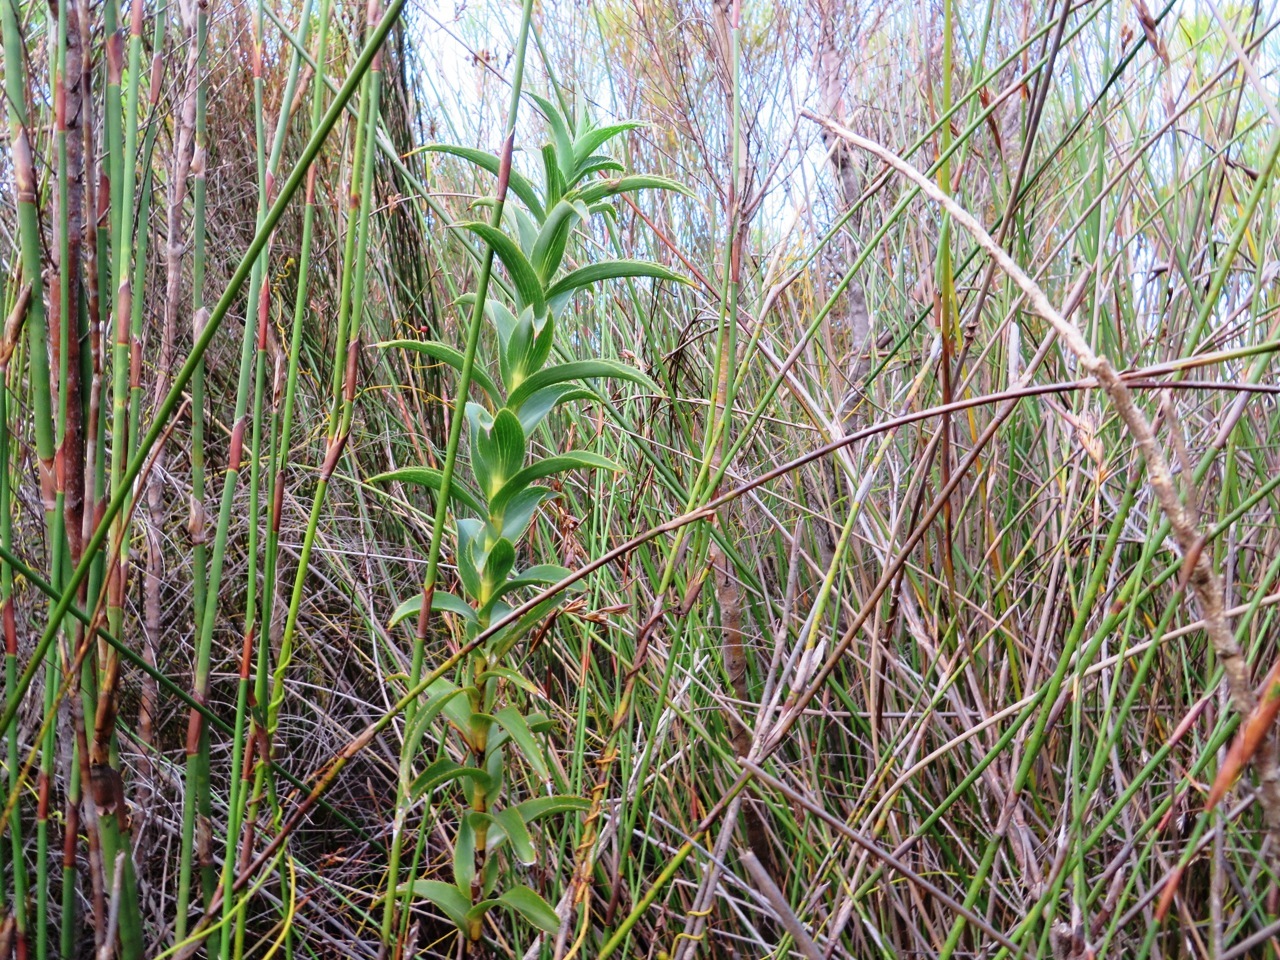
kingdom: Plantae
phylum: Tracheophyta
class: Magnoliopsida
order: Rosales
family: Rosaceae
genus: Cliffortia
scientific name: Cliffortia recurvata
